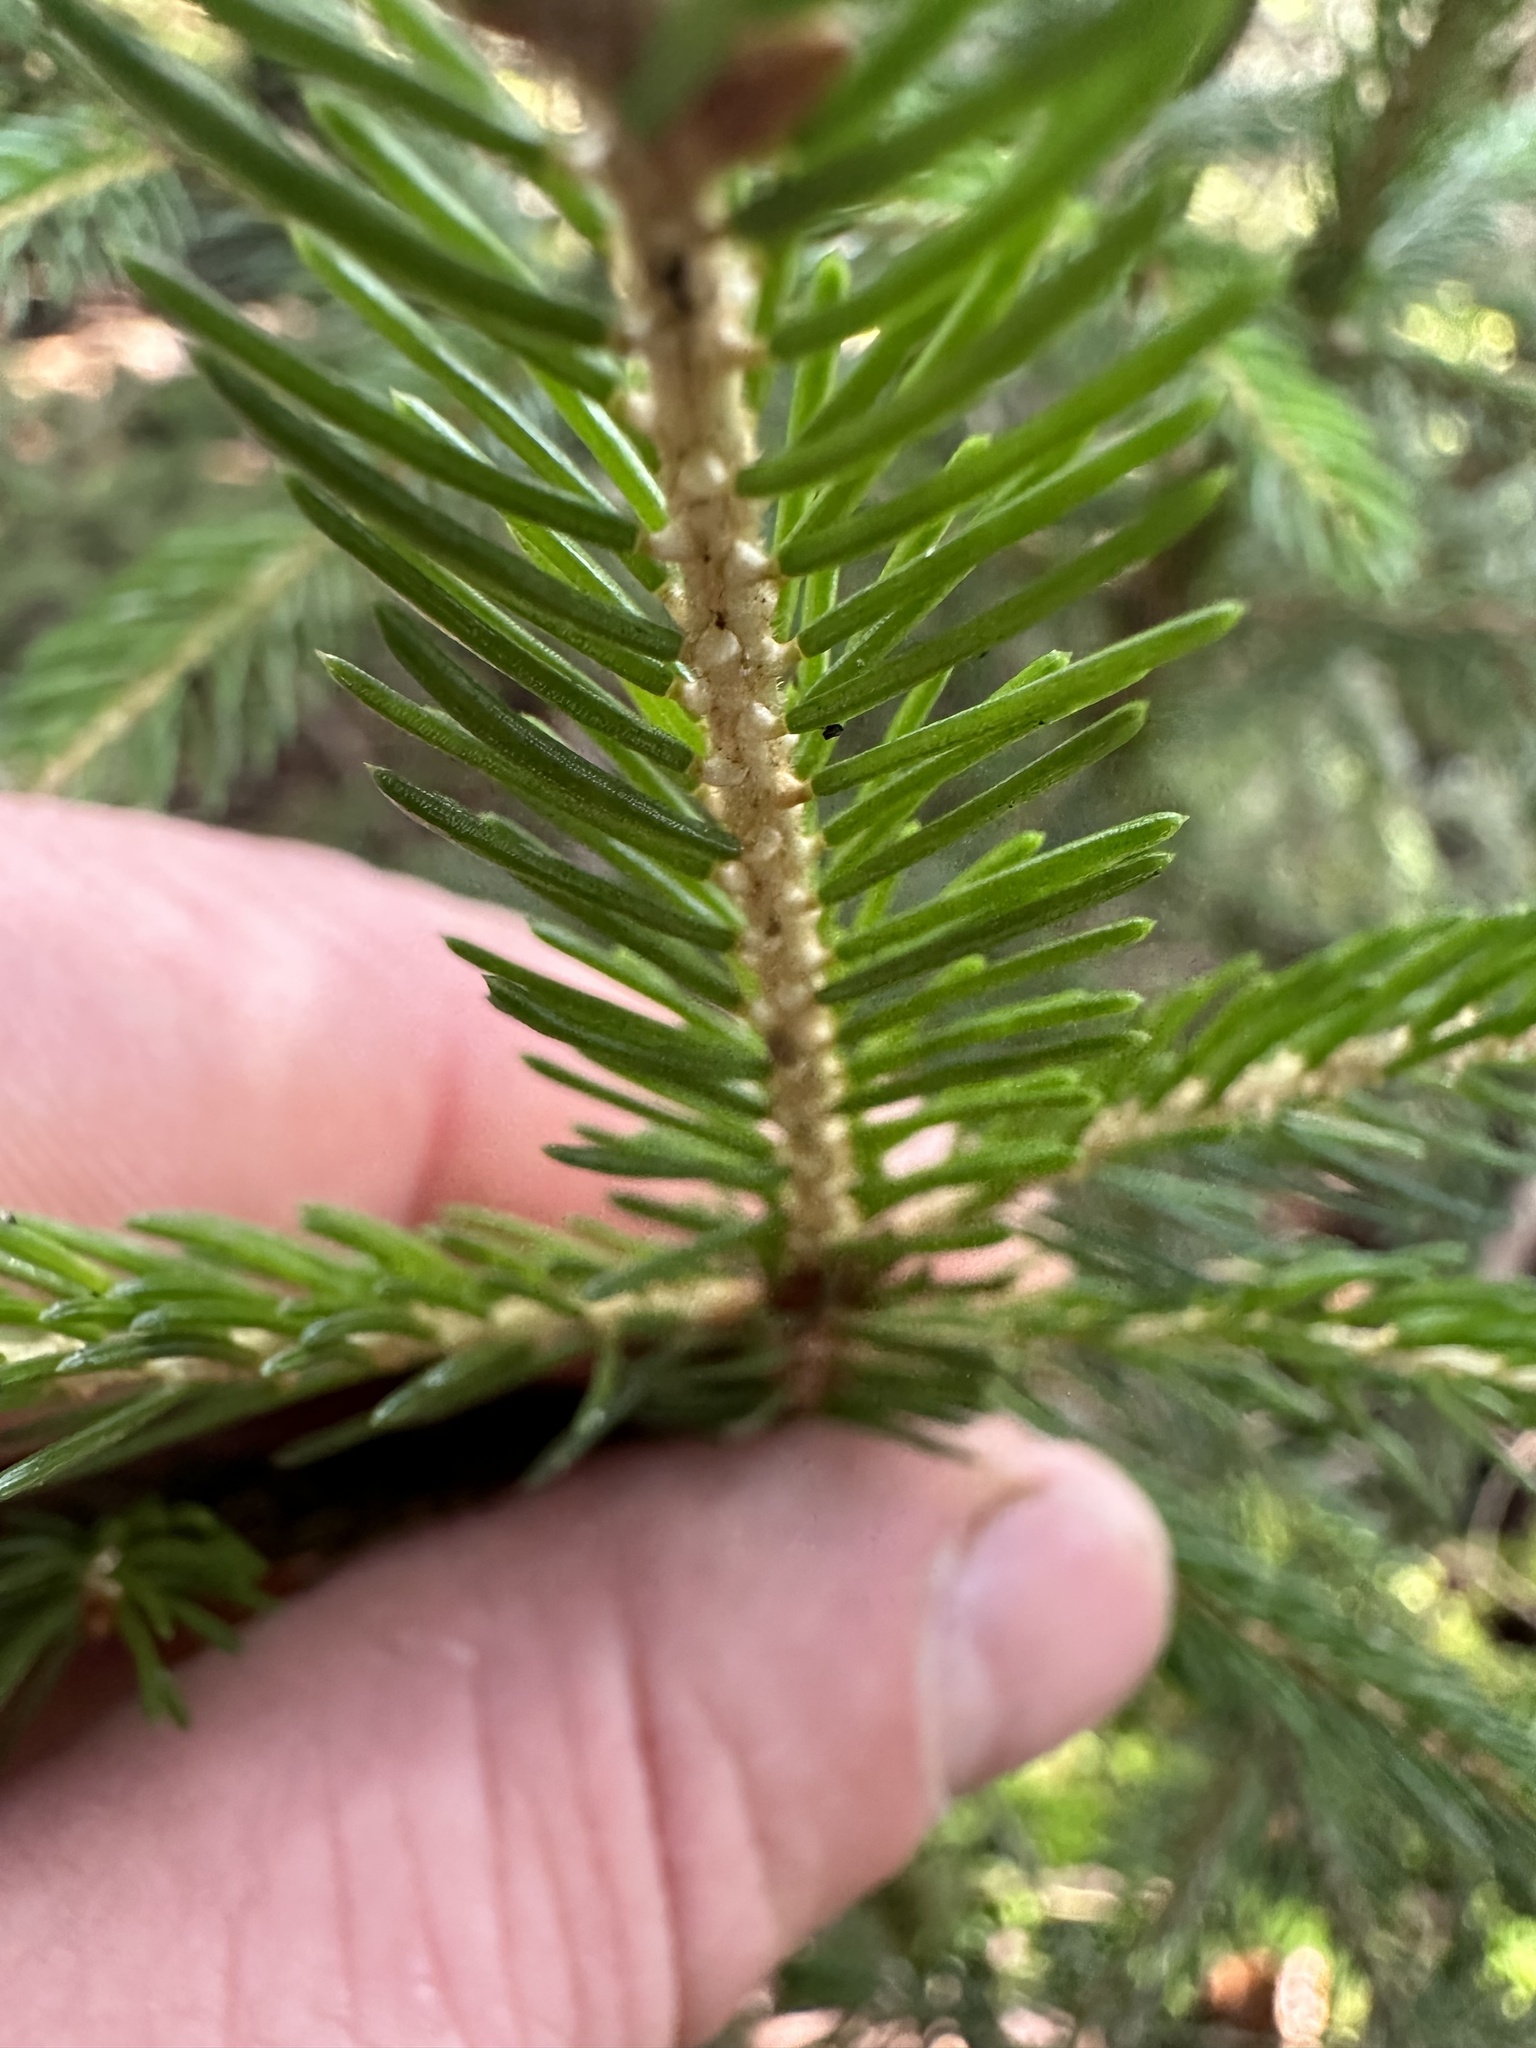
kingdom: Plantae
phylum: Tracheophyta
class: Pinopsida
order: Pinales
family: Pinaceae
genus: Picea
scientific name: Picea rubens
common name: Red spruce
